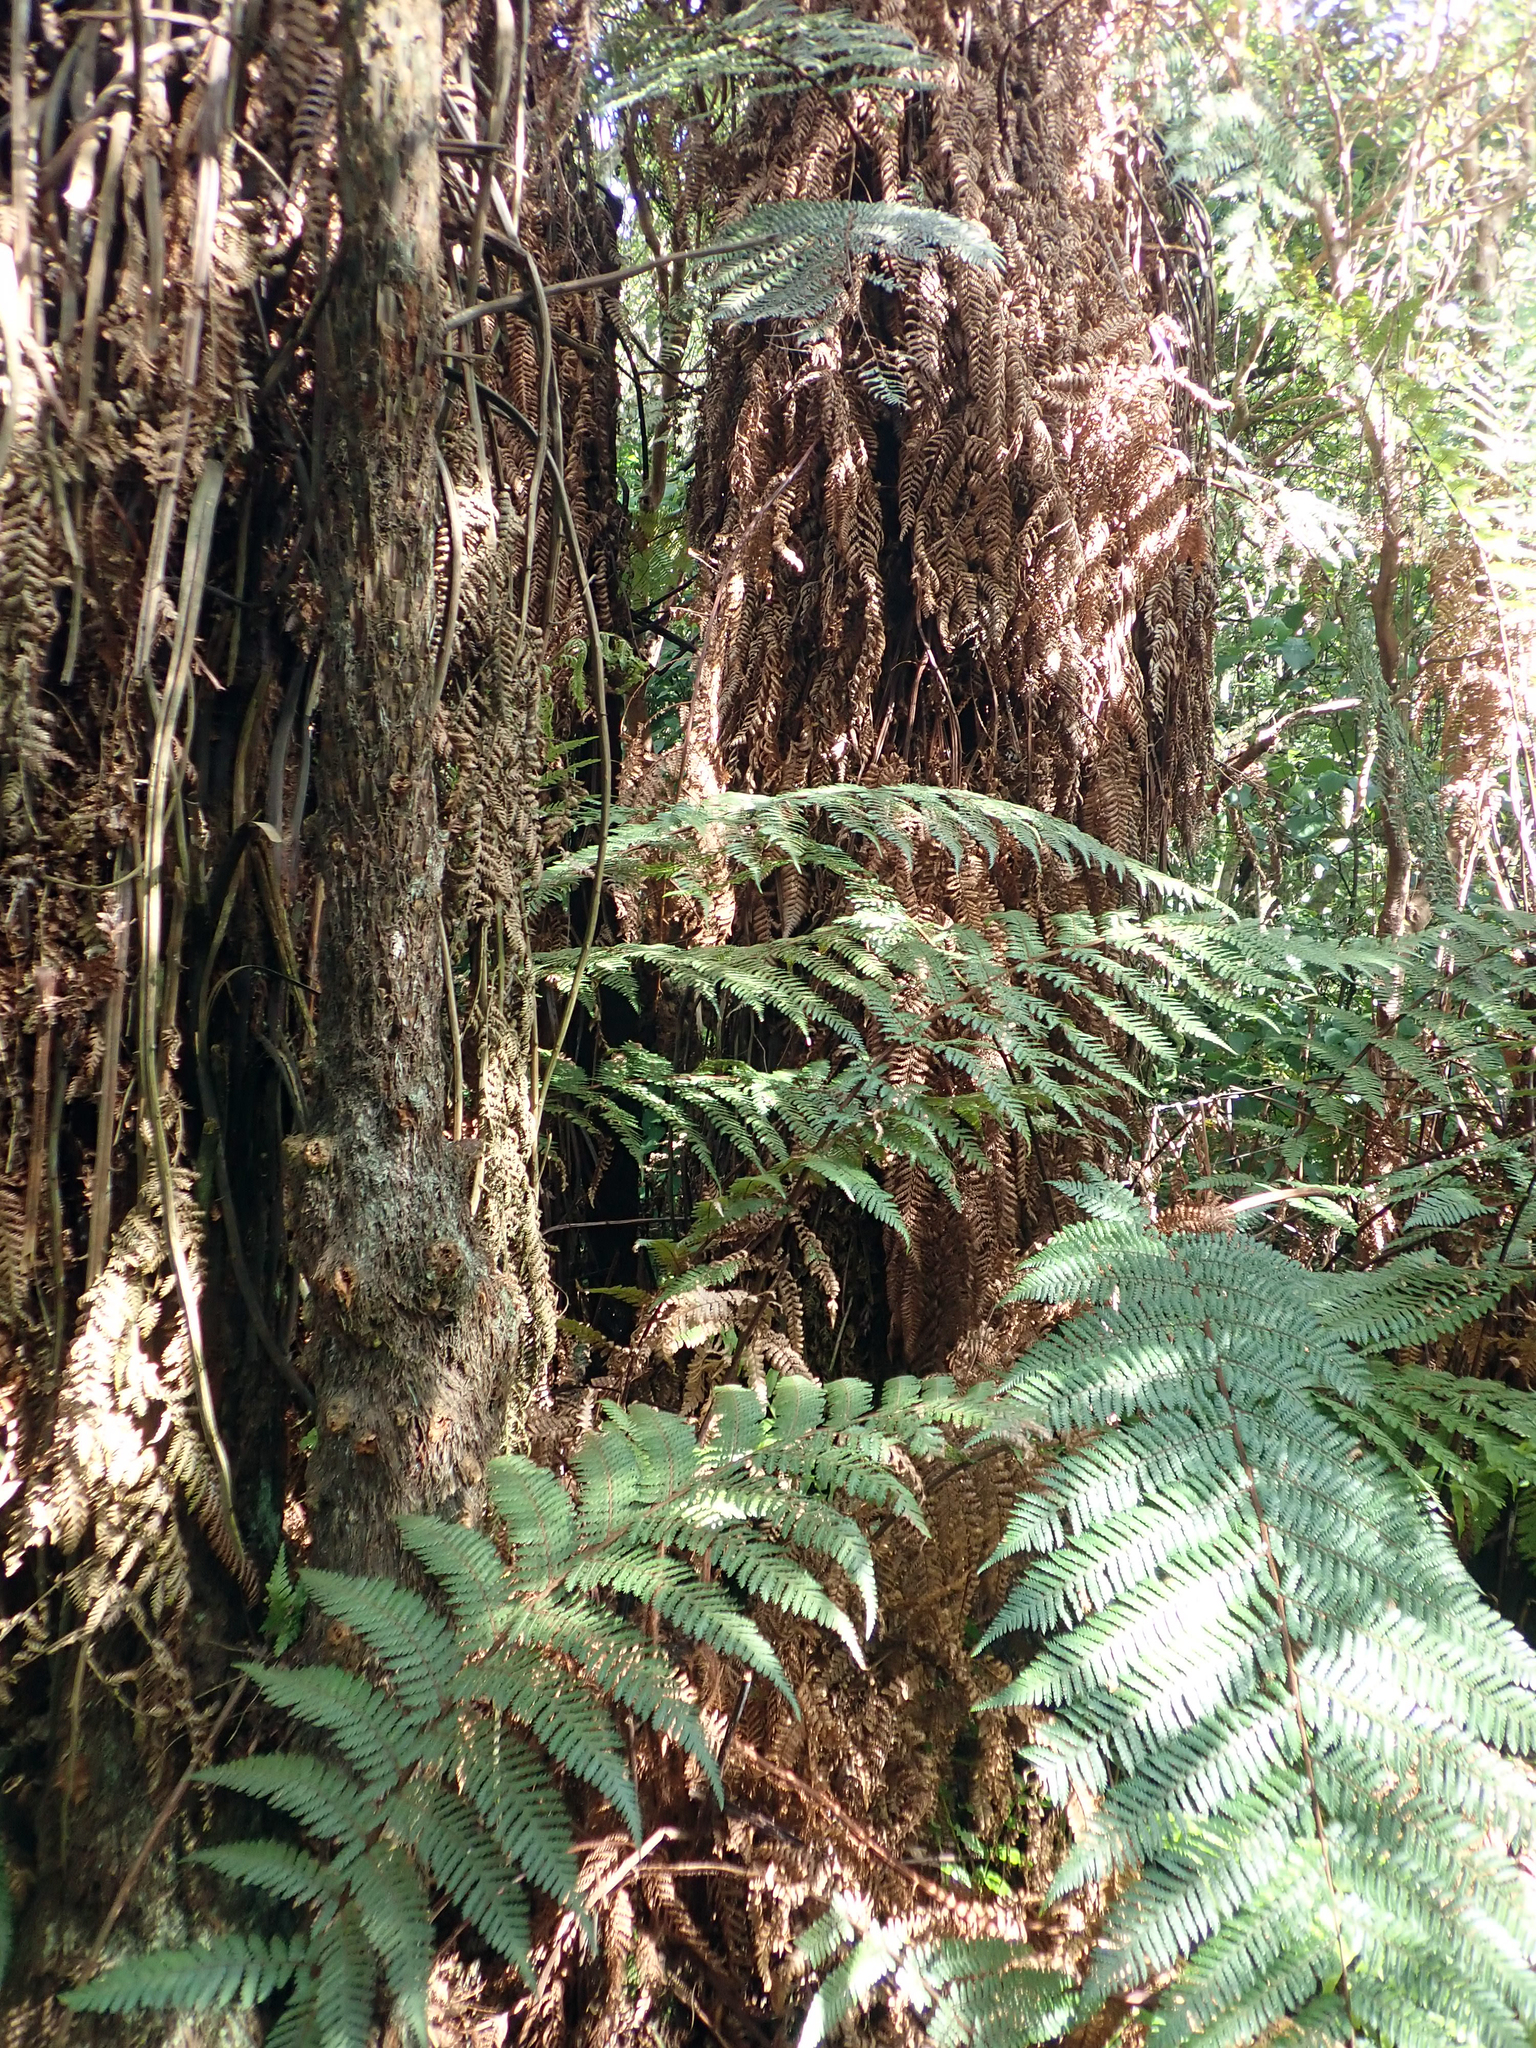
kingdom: Plantae
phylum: Tracheophyta
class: Polypodiopsida
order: Cyatheales
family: Dicksoniaceae
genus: Dicksonia
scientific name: Dicksonia squarrosa
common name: Hard treefern
